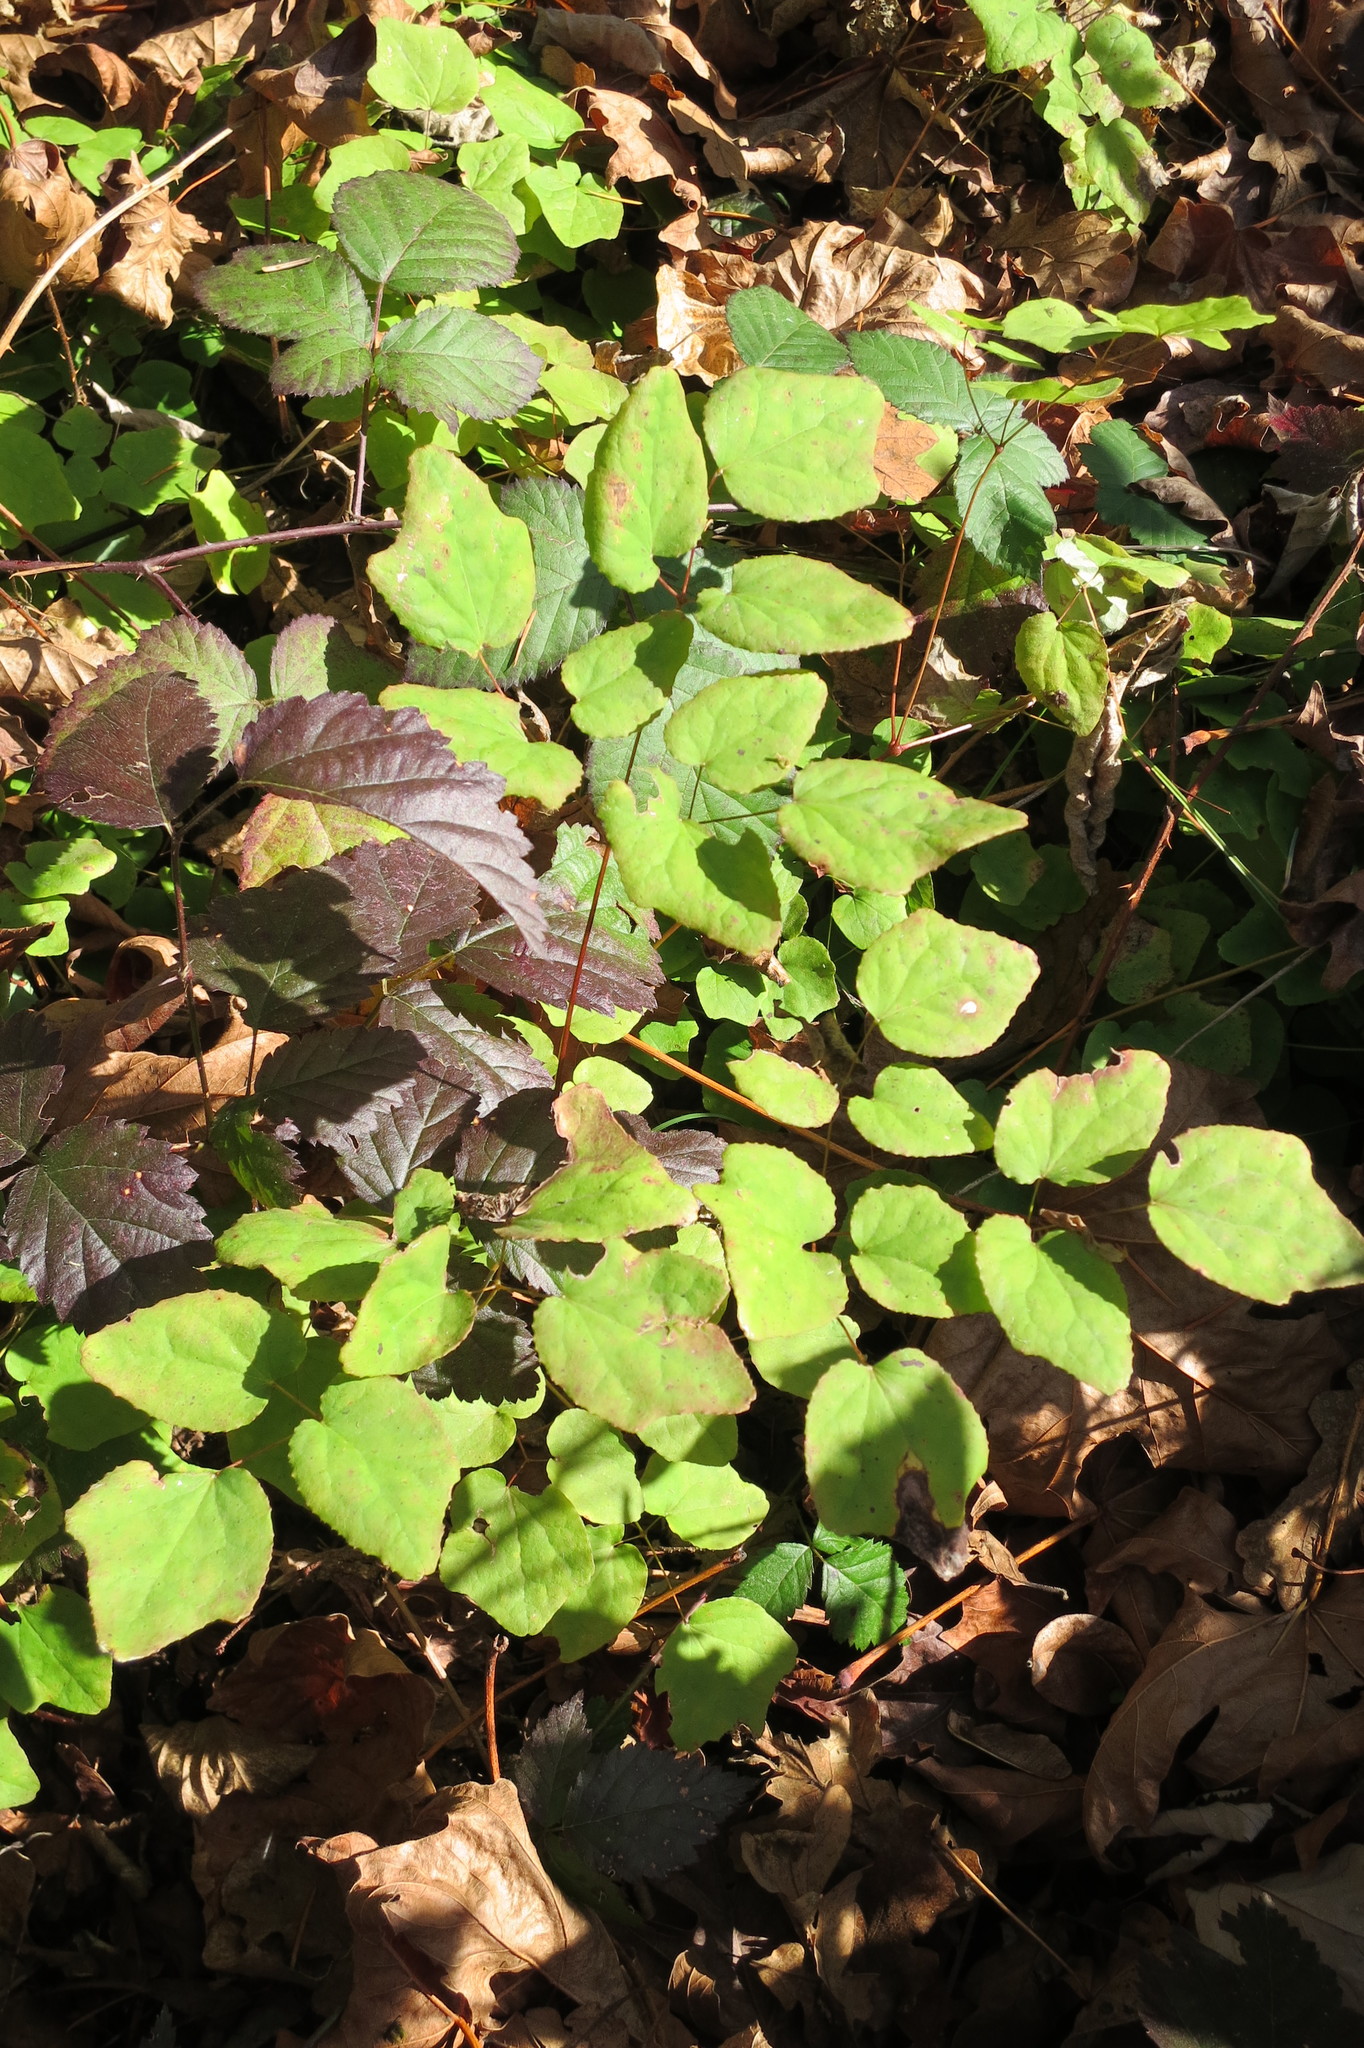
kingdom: Plantae
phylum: Tracheophyta
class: Magnoliopsida
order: Ranunculales
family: Berberidaceae
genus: Vancouveria
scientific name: Vancouveria hexandra
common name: Northern inside-out-flower
